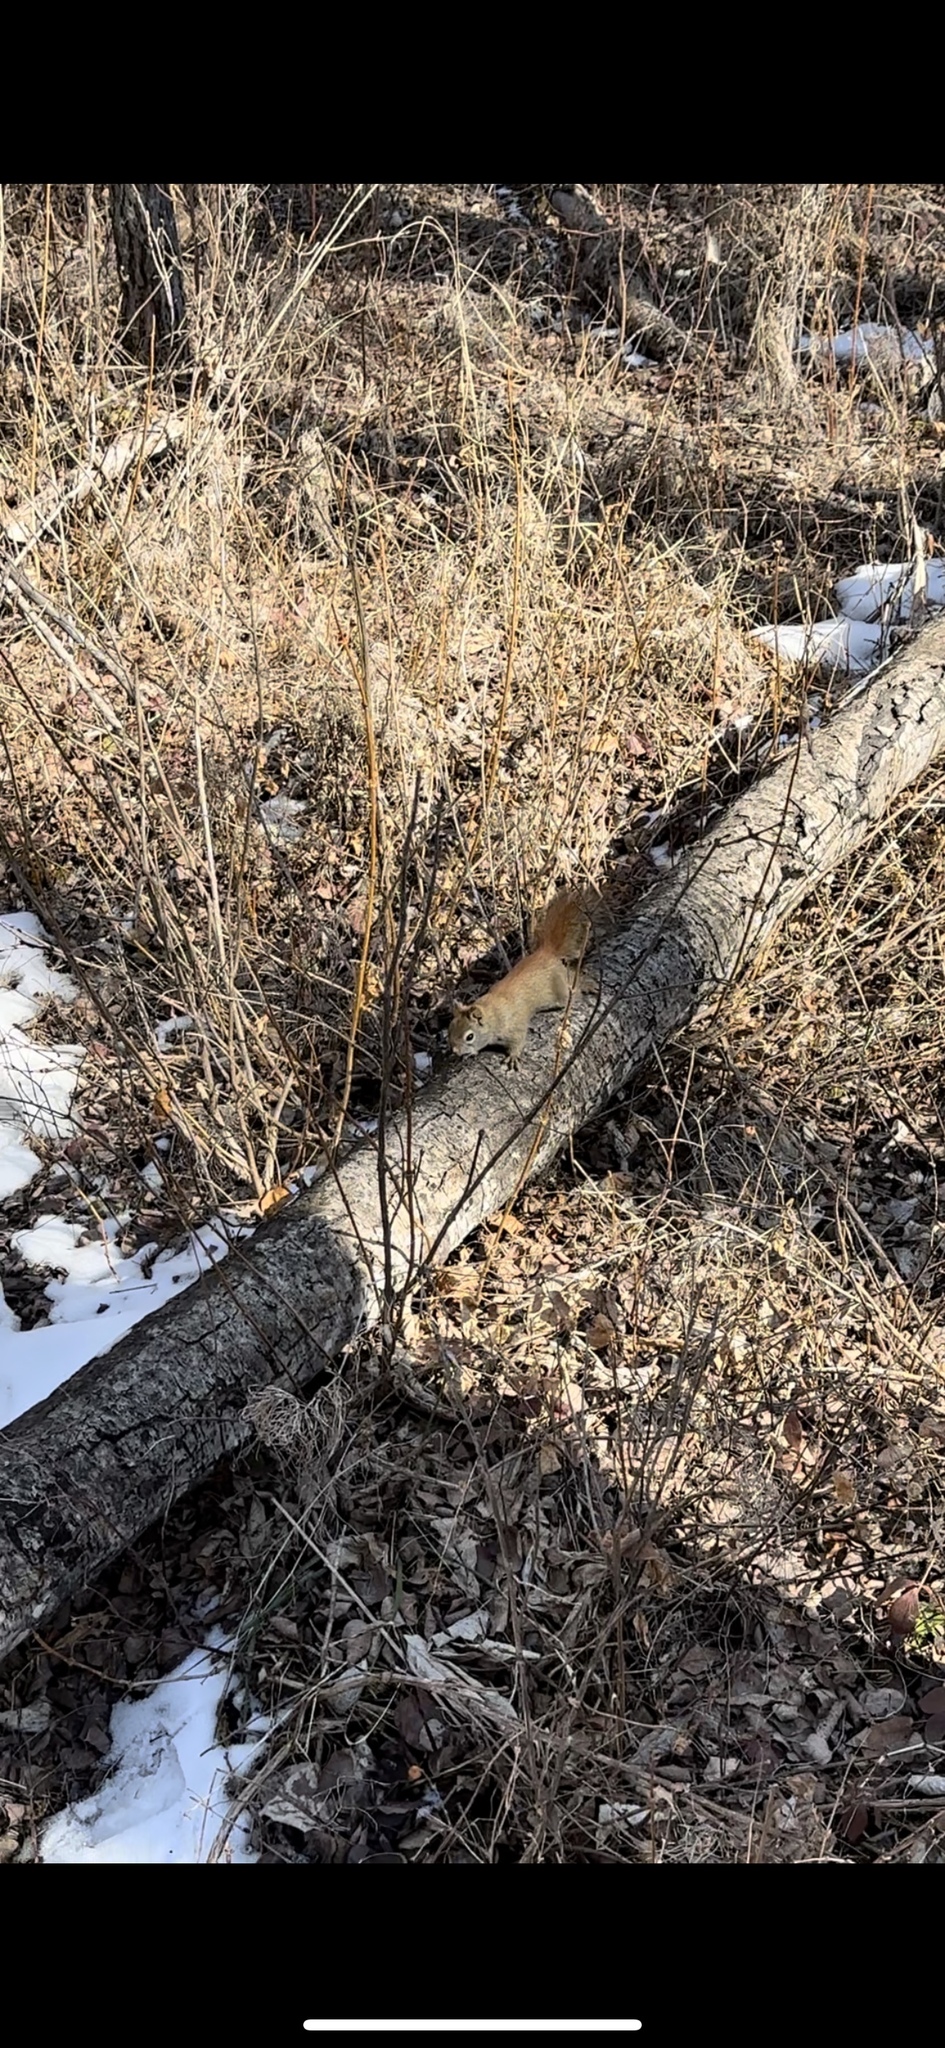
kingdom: Animalia
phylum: Chordata
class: Mammalia
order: Rodentia
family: Sciuridae
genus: Tamiasciurus
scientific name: Tamiasciurus hudsonicus
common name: Red squirrel
